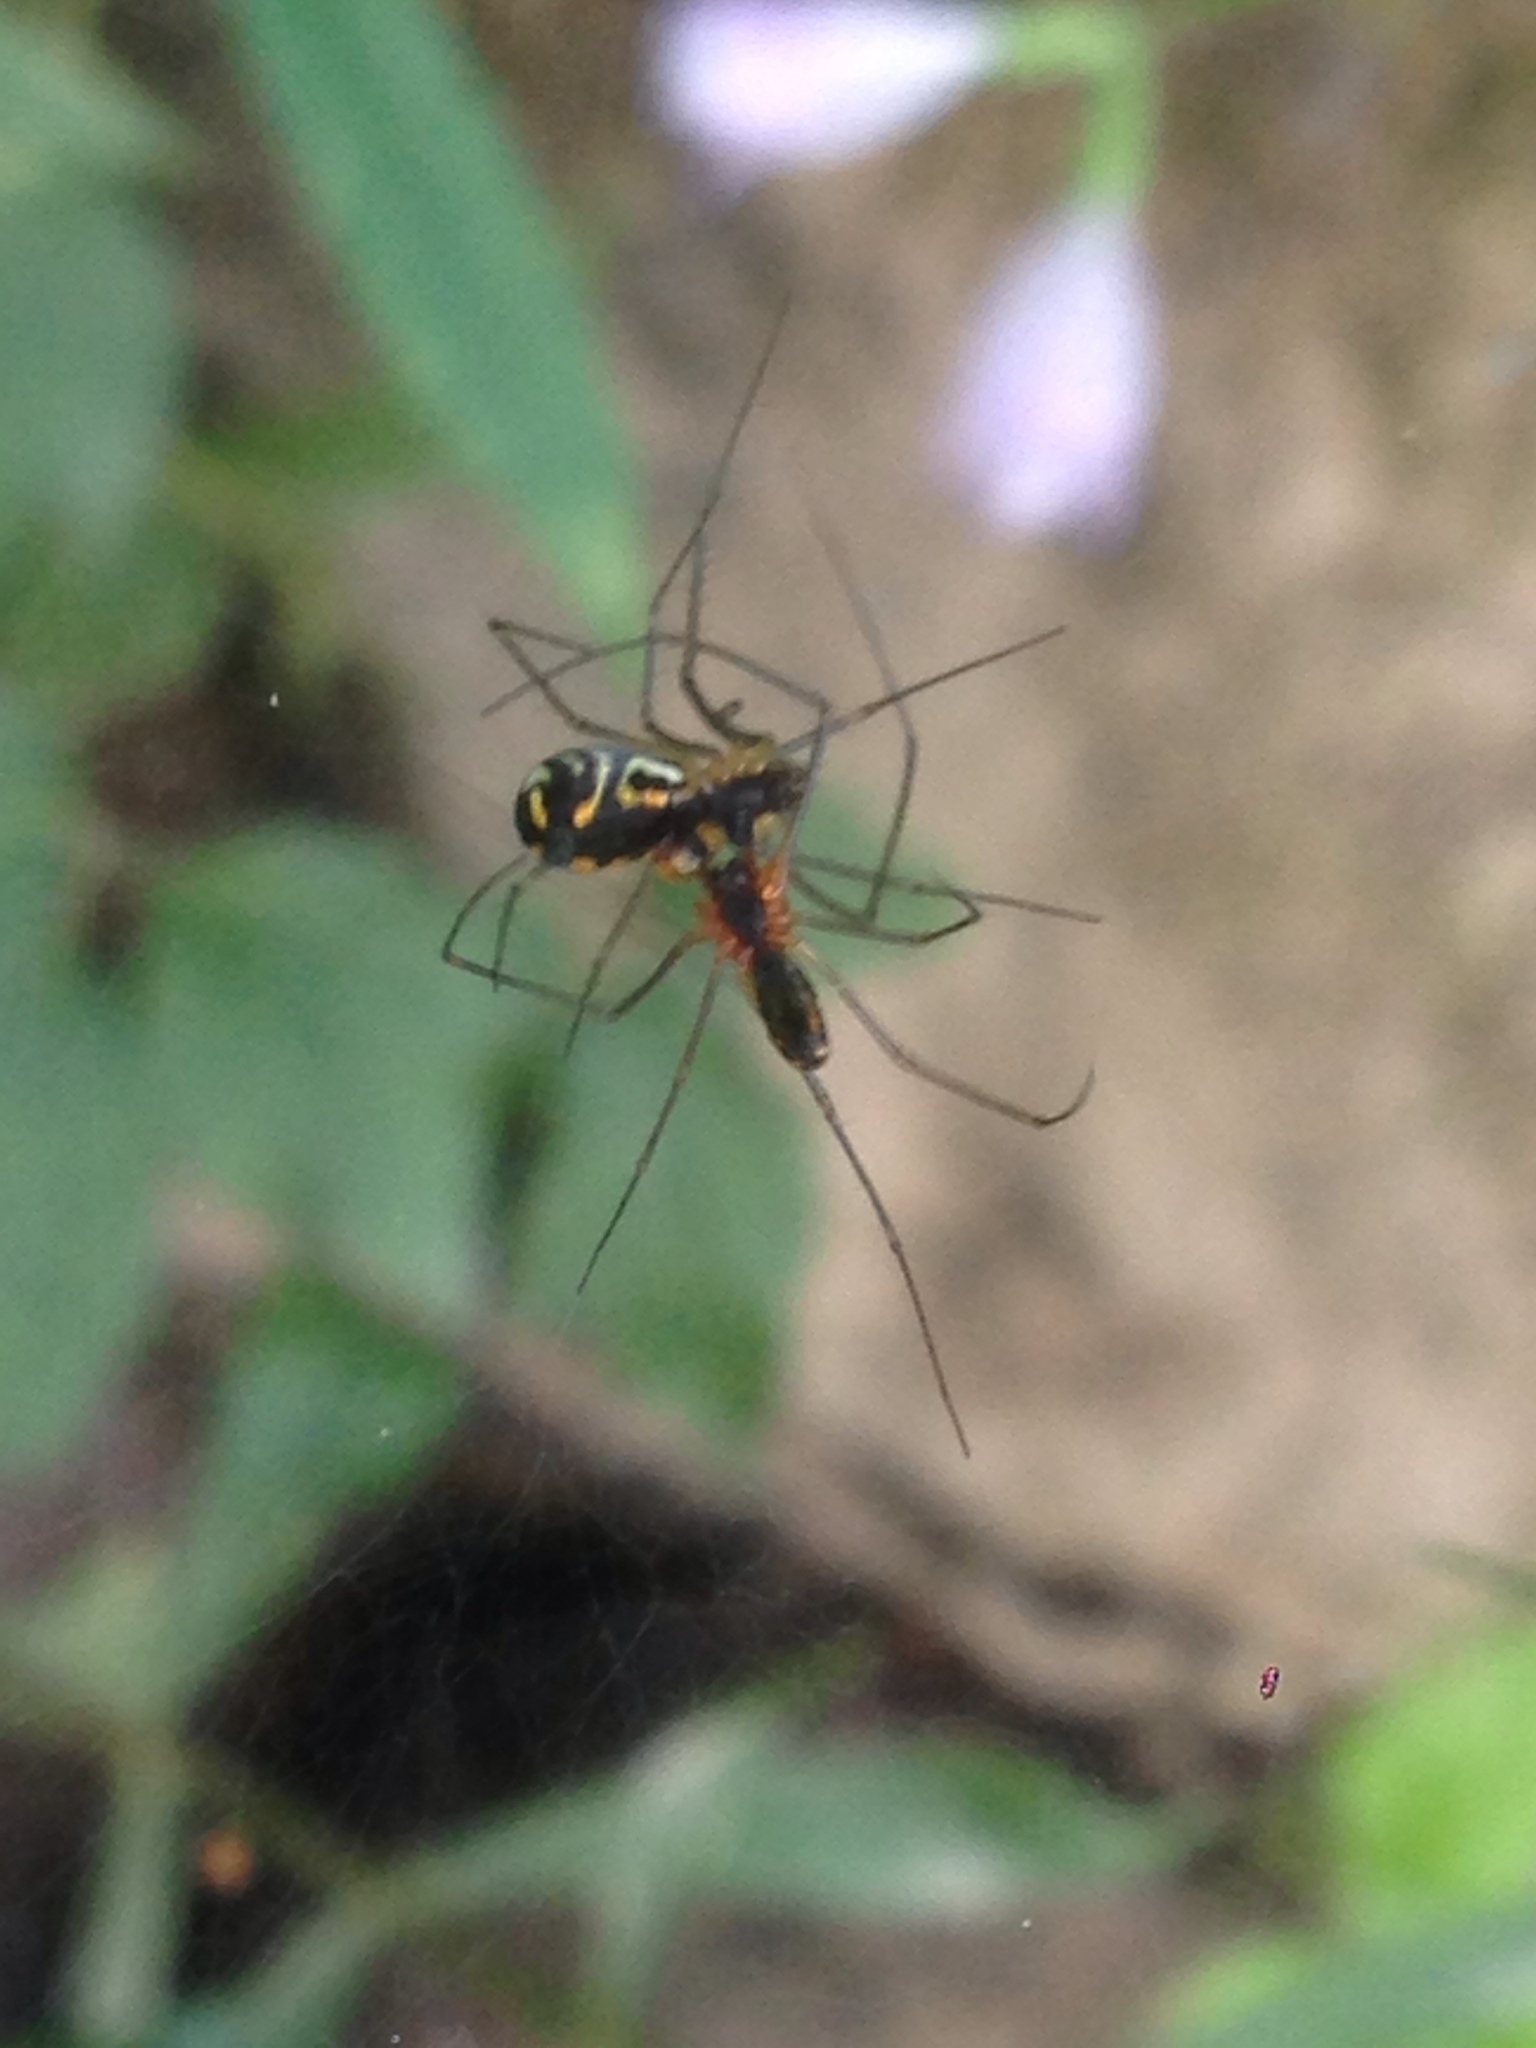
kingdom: Animalia
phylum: Arthropoda
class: Arachnida
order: Araneae
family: Linyphiidae
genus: Neriene
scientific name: Neriene radiata
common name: Filmy dome spider
